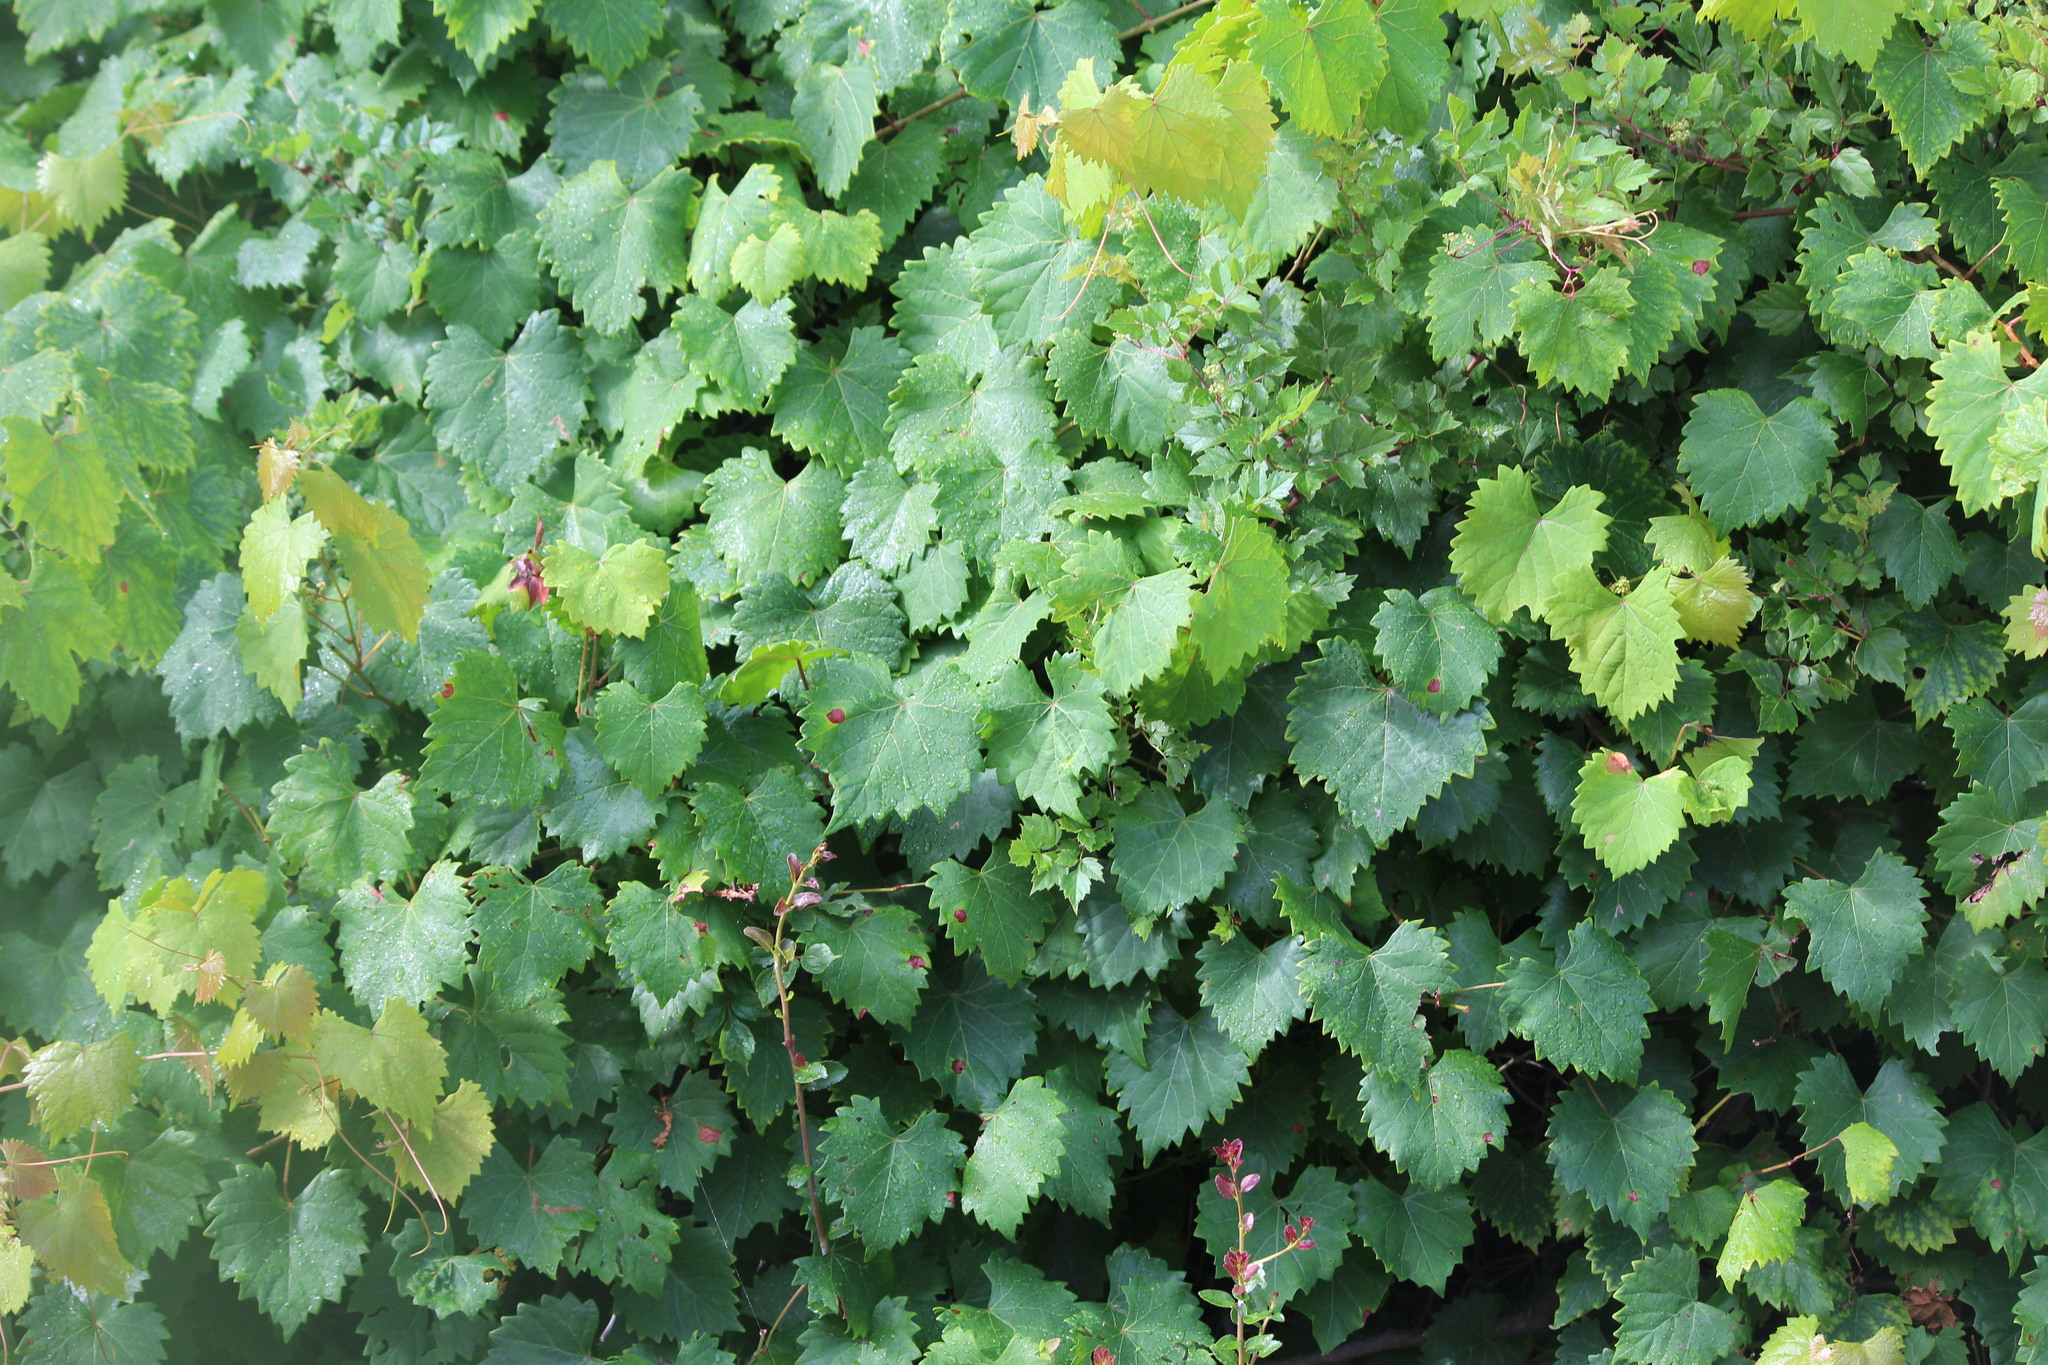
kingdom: Plantae
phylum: Tracheophyta
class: Magnoliopsida
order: Vitales
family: Vitaceae
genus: Vitis
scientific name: Vitis rotundifolia
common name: Muscadine grape
